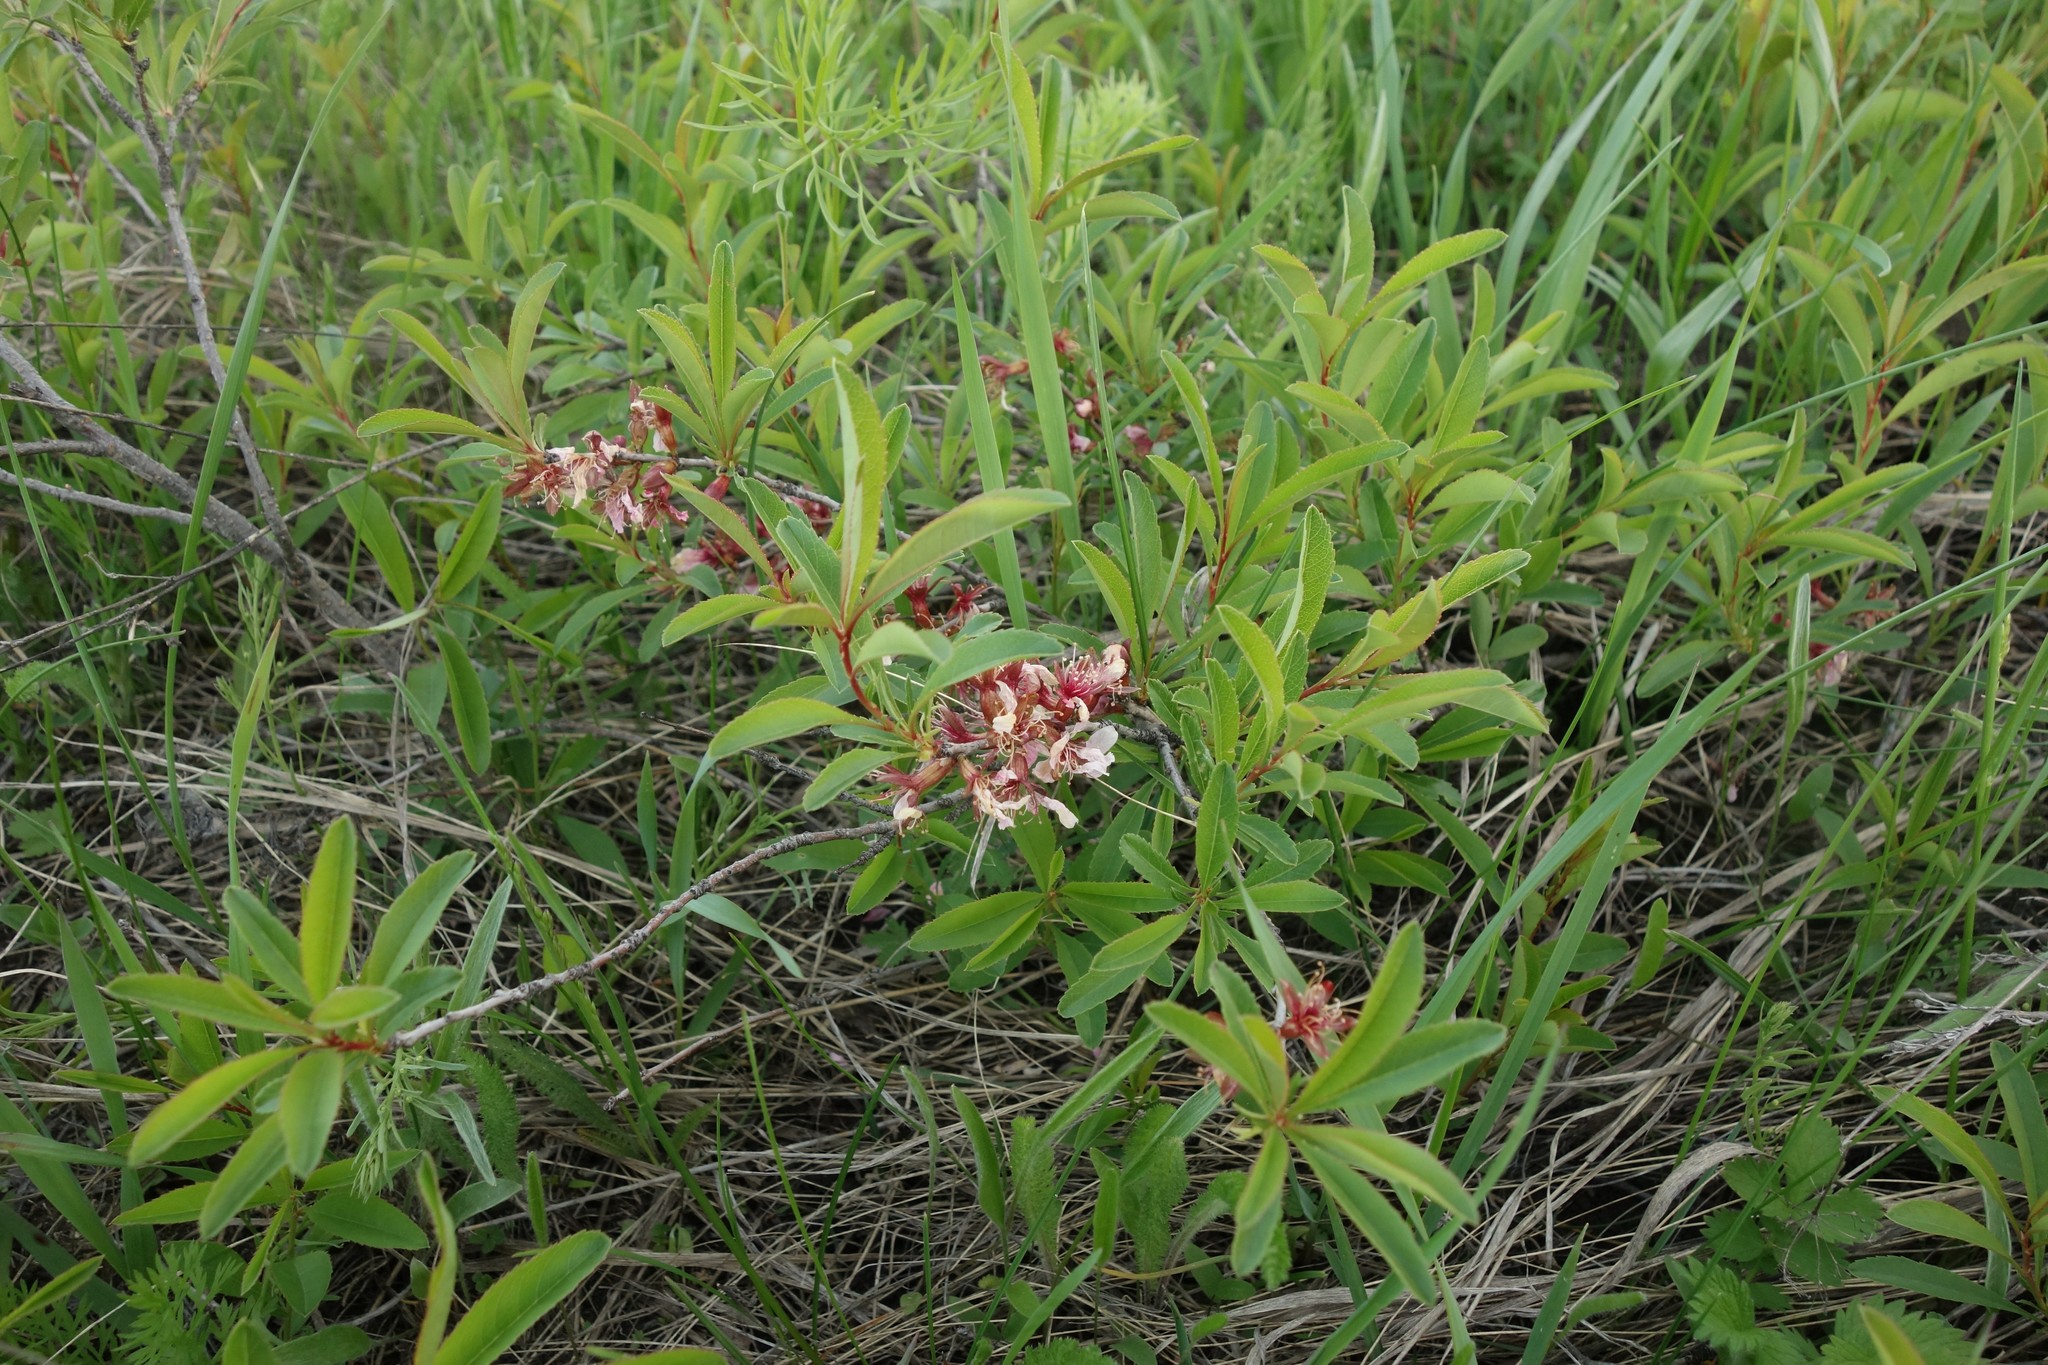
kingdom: Plantae
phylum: Tracheophyta
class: Magnoliopsida
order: Rosales
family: Rosaceae
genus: Prunus
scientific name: Prunus tenella
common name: Dwarf russian almond
